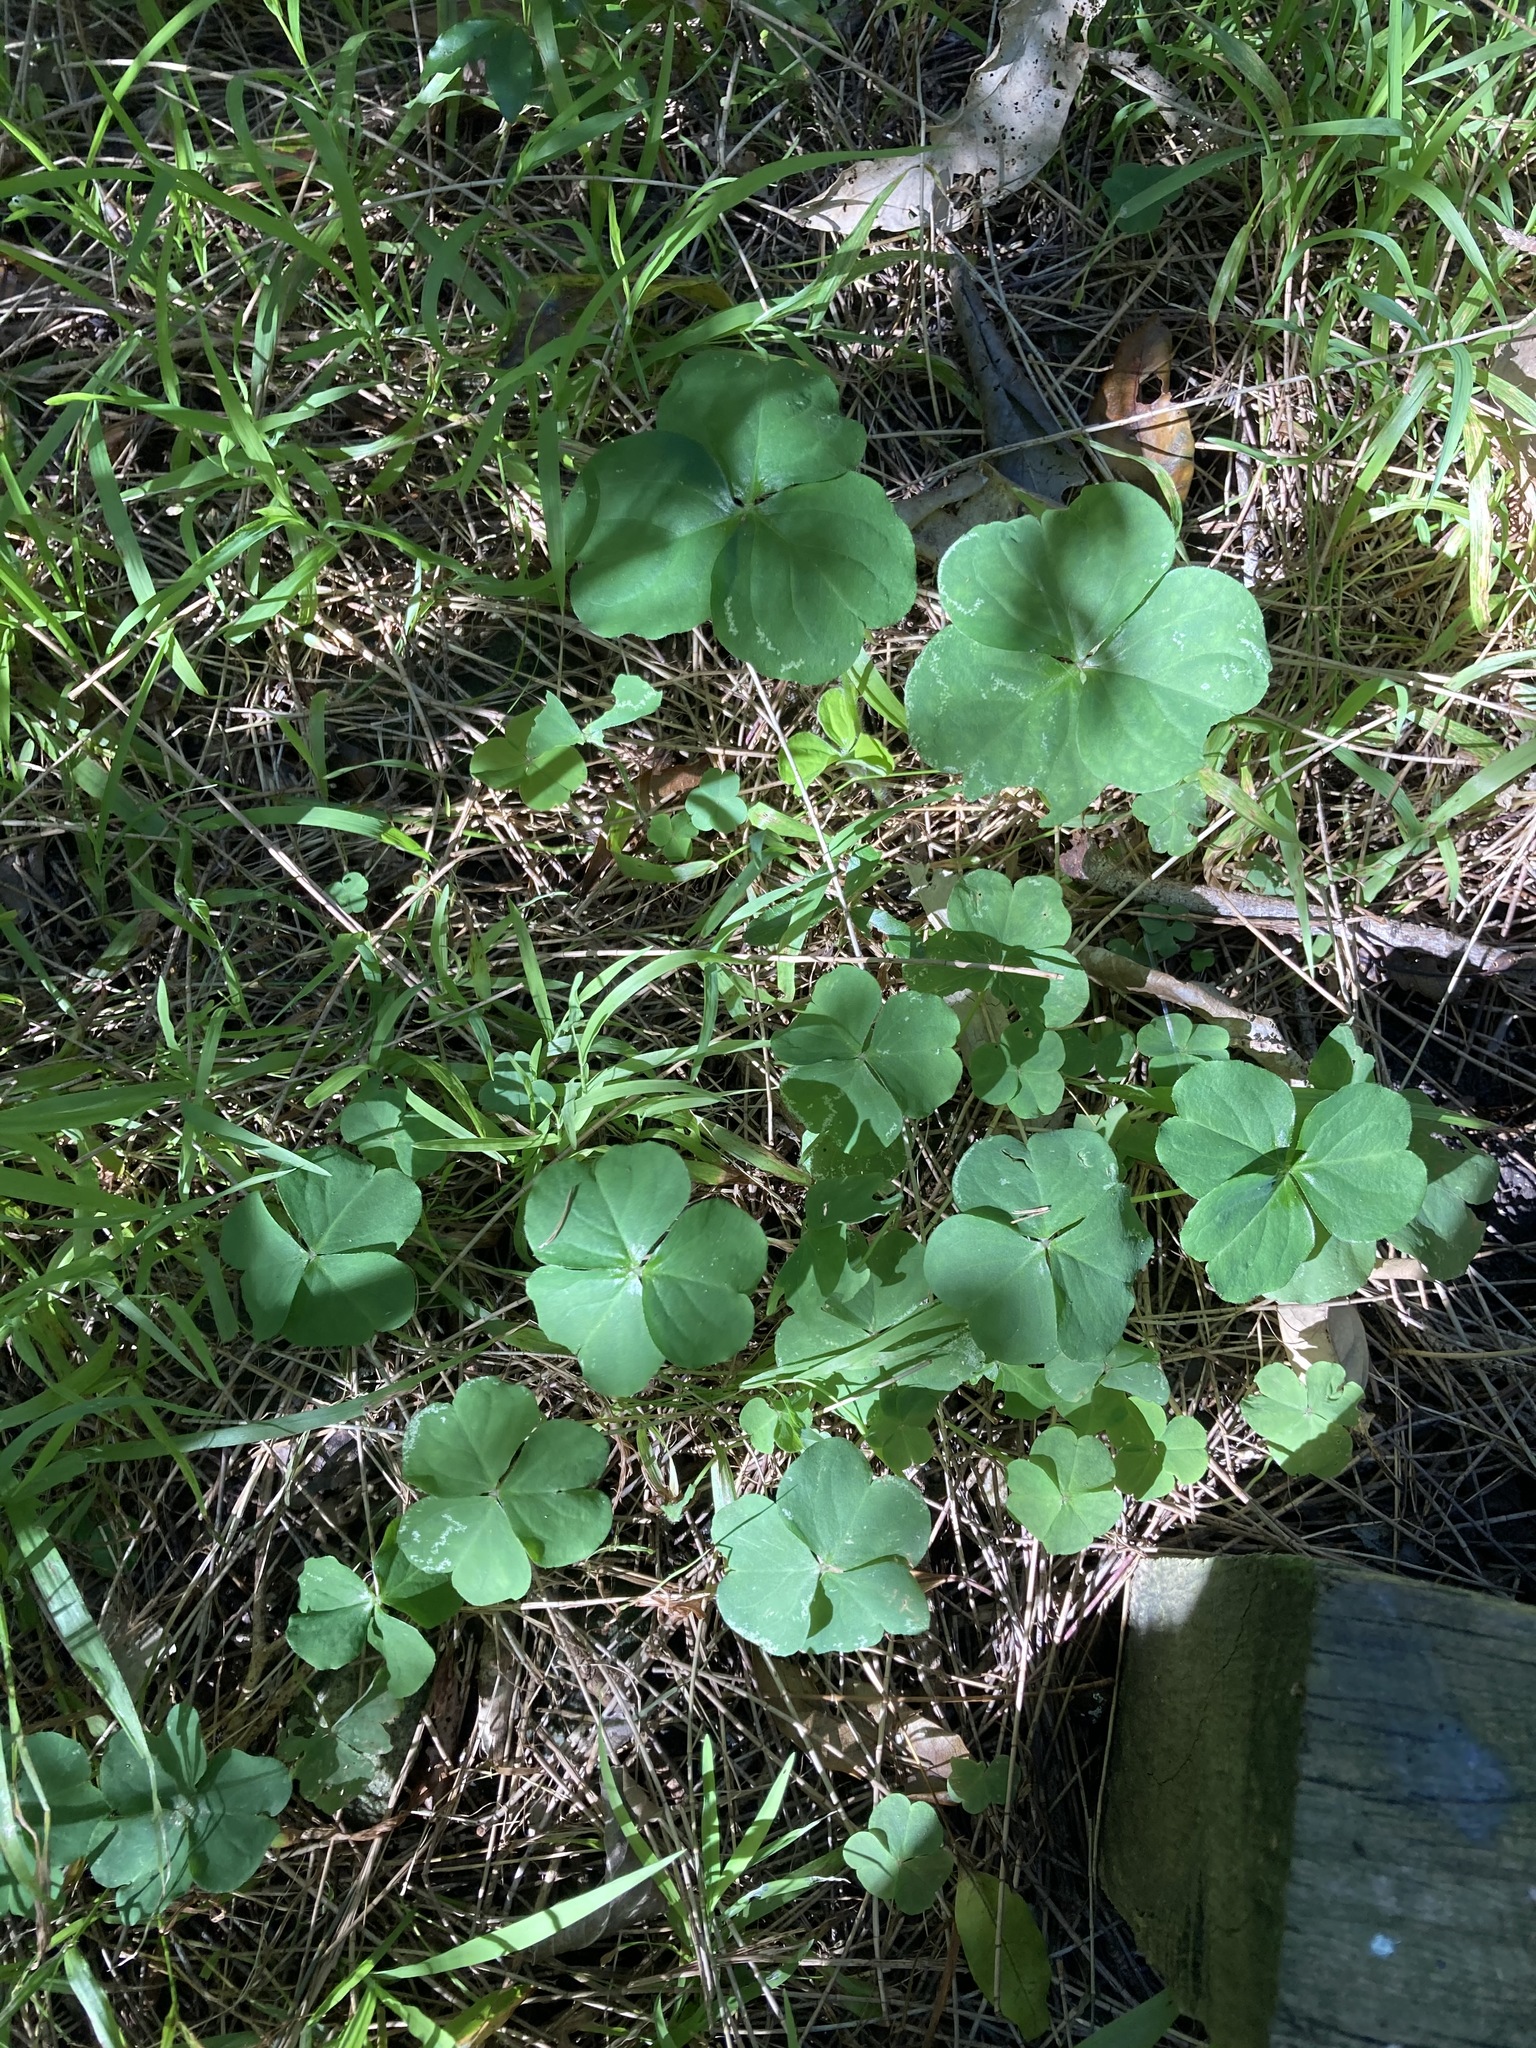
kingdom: Plantae
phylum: Tracheophyta
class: Magnoliopsida
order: Oxalidales
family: Oxalidaceae
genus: Oxalis
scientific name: Oxalis debilis
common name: Large-flowered pink-sorrel
